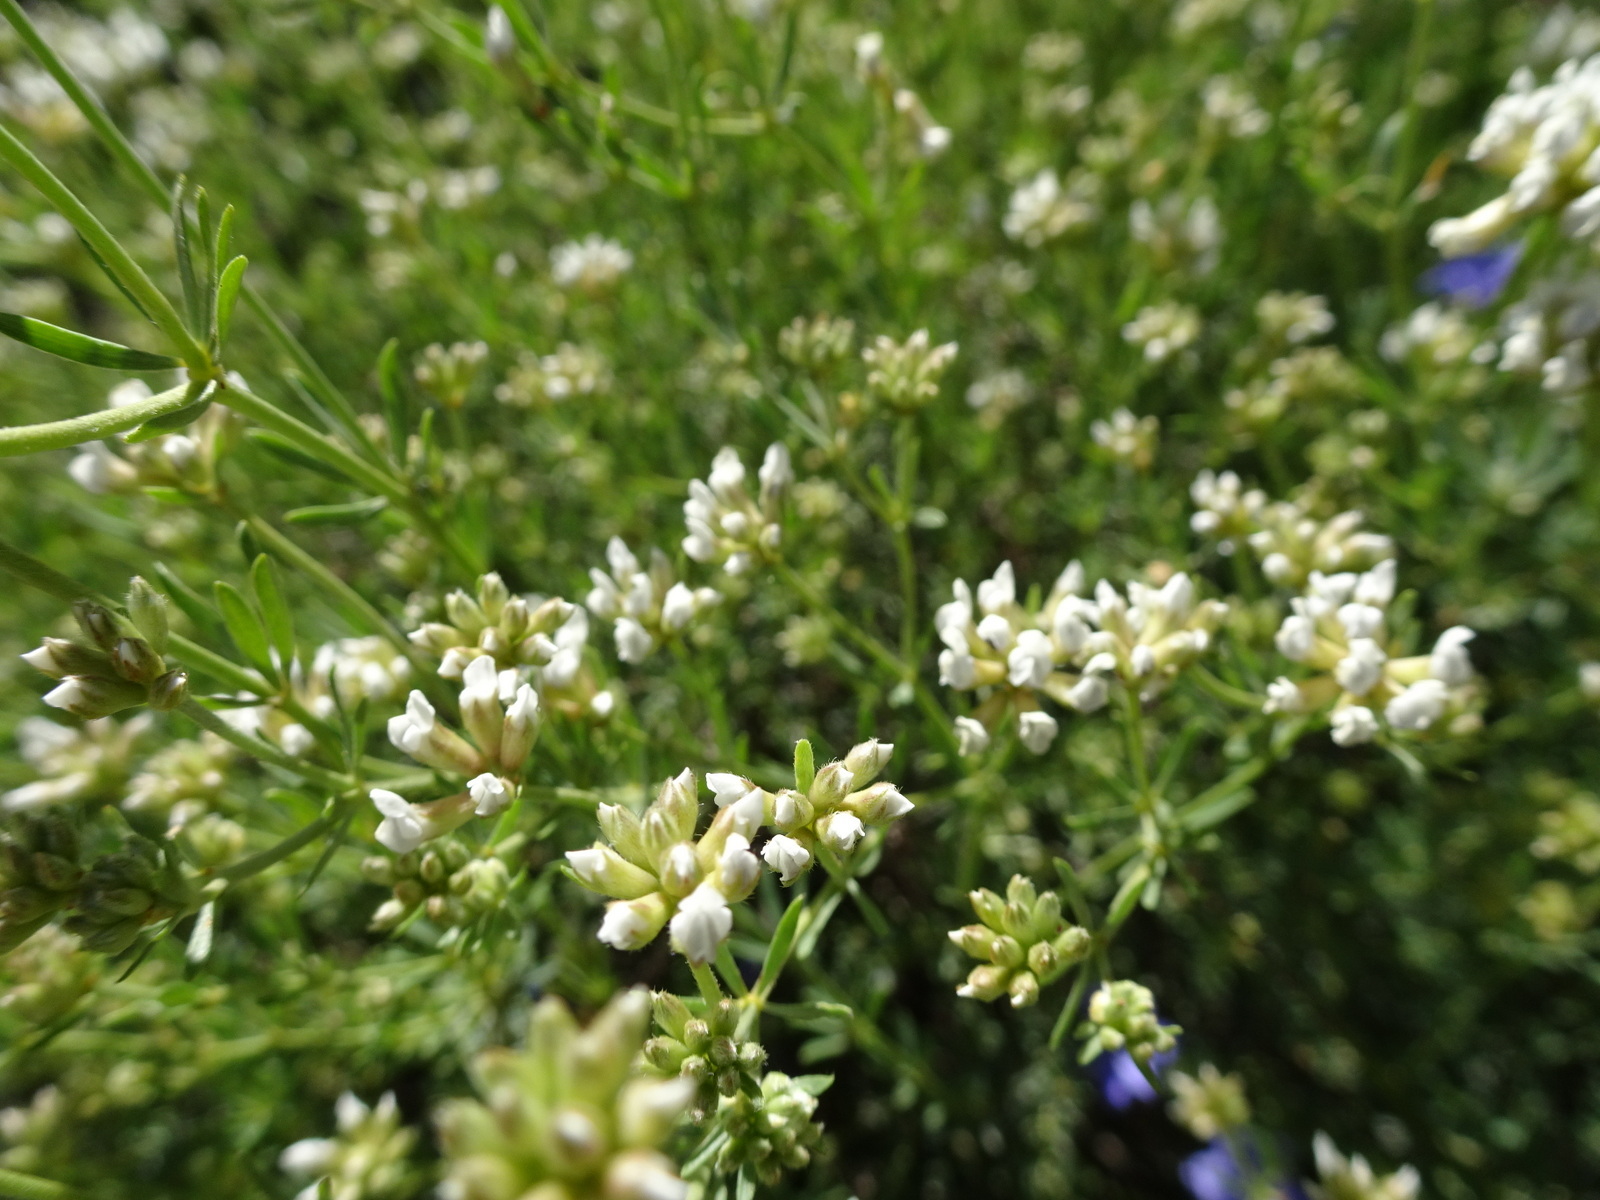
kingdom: Plantae
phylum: Tracheophyta
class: Magnoliopsida
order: Fabales
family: Fabaceae
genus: Lotus
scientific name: Lotus dorycnium
